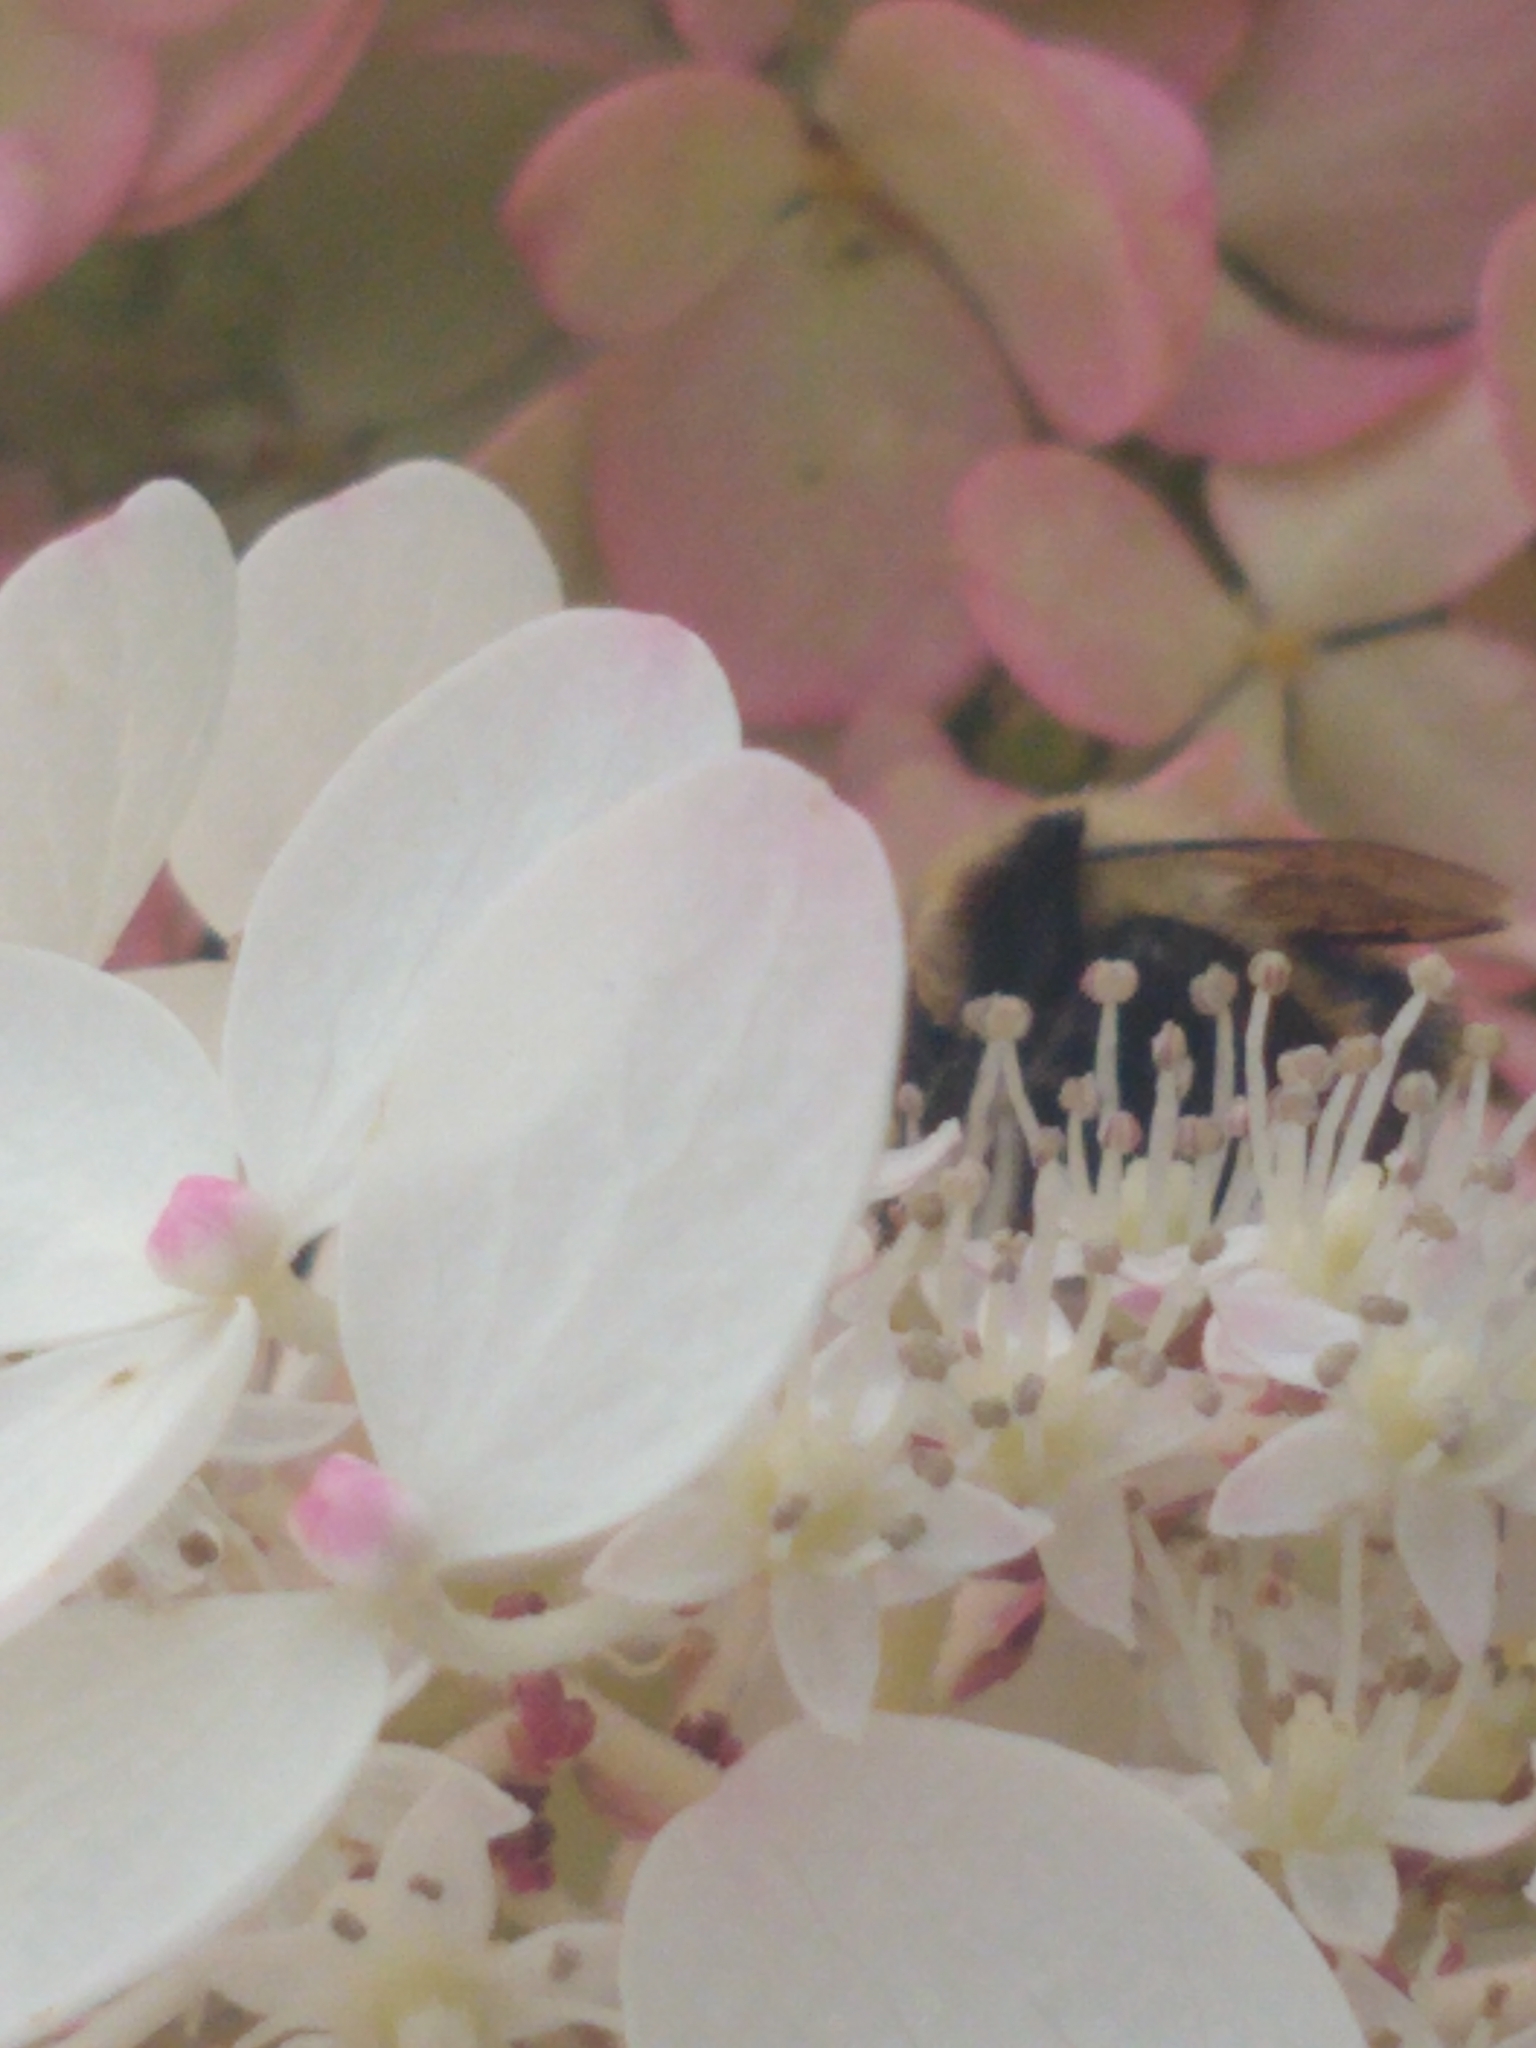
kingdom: Animalia
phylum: Arthropoda
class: Insecta
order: Hymenoptera
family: Apidae
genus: Bombus
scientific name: Bombus impatiens
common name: Common eastern bumble bee
